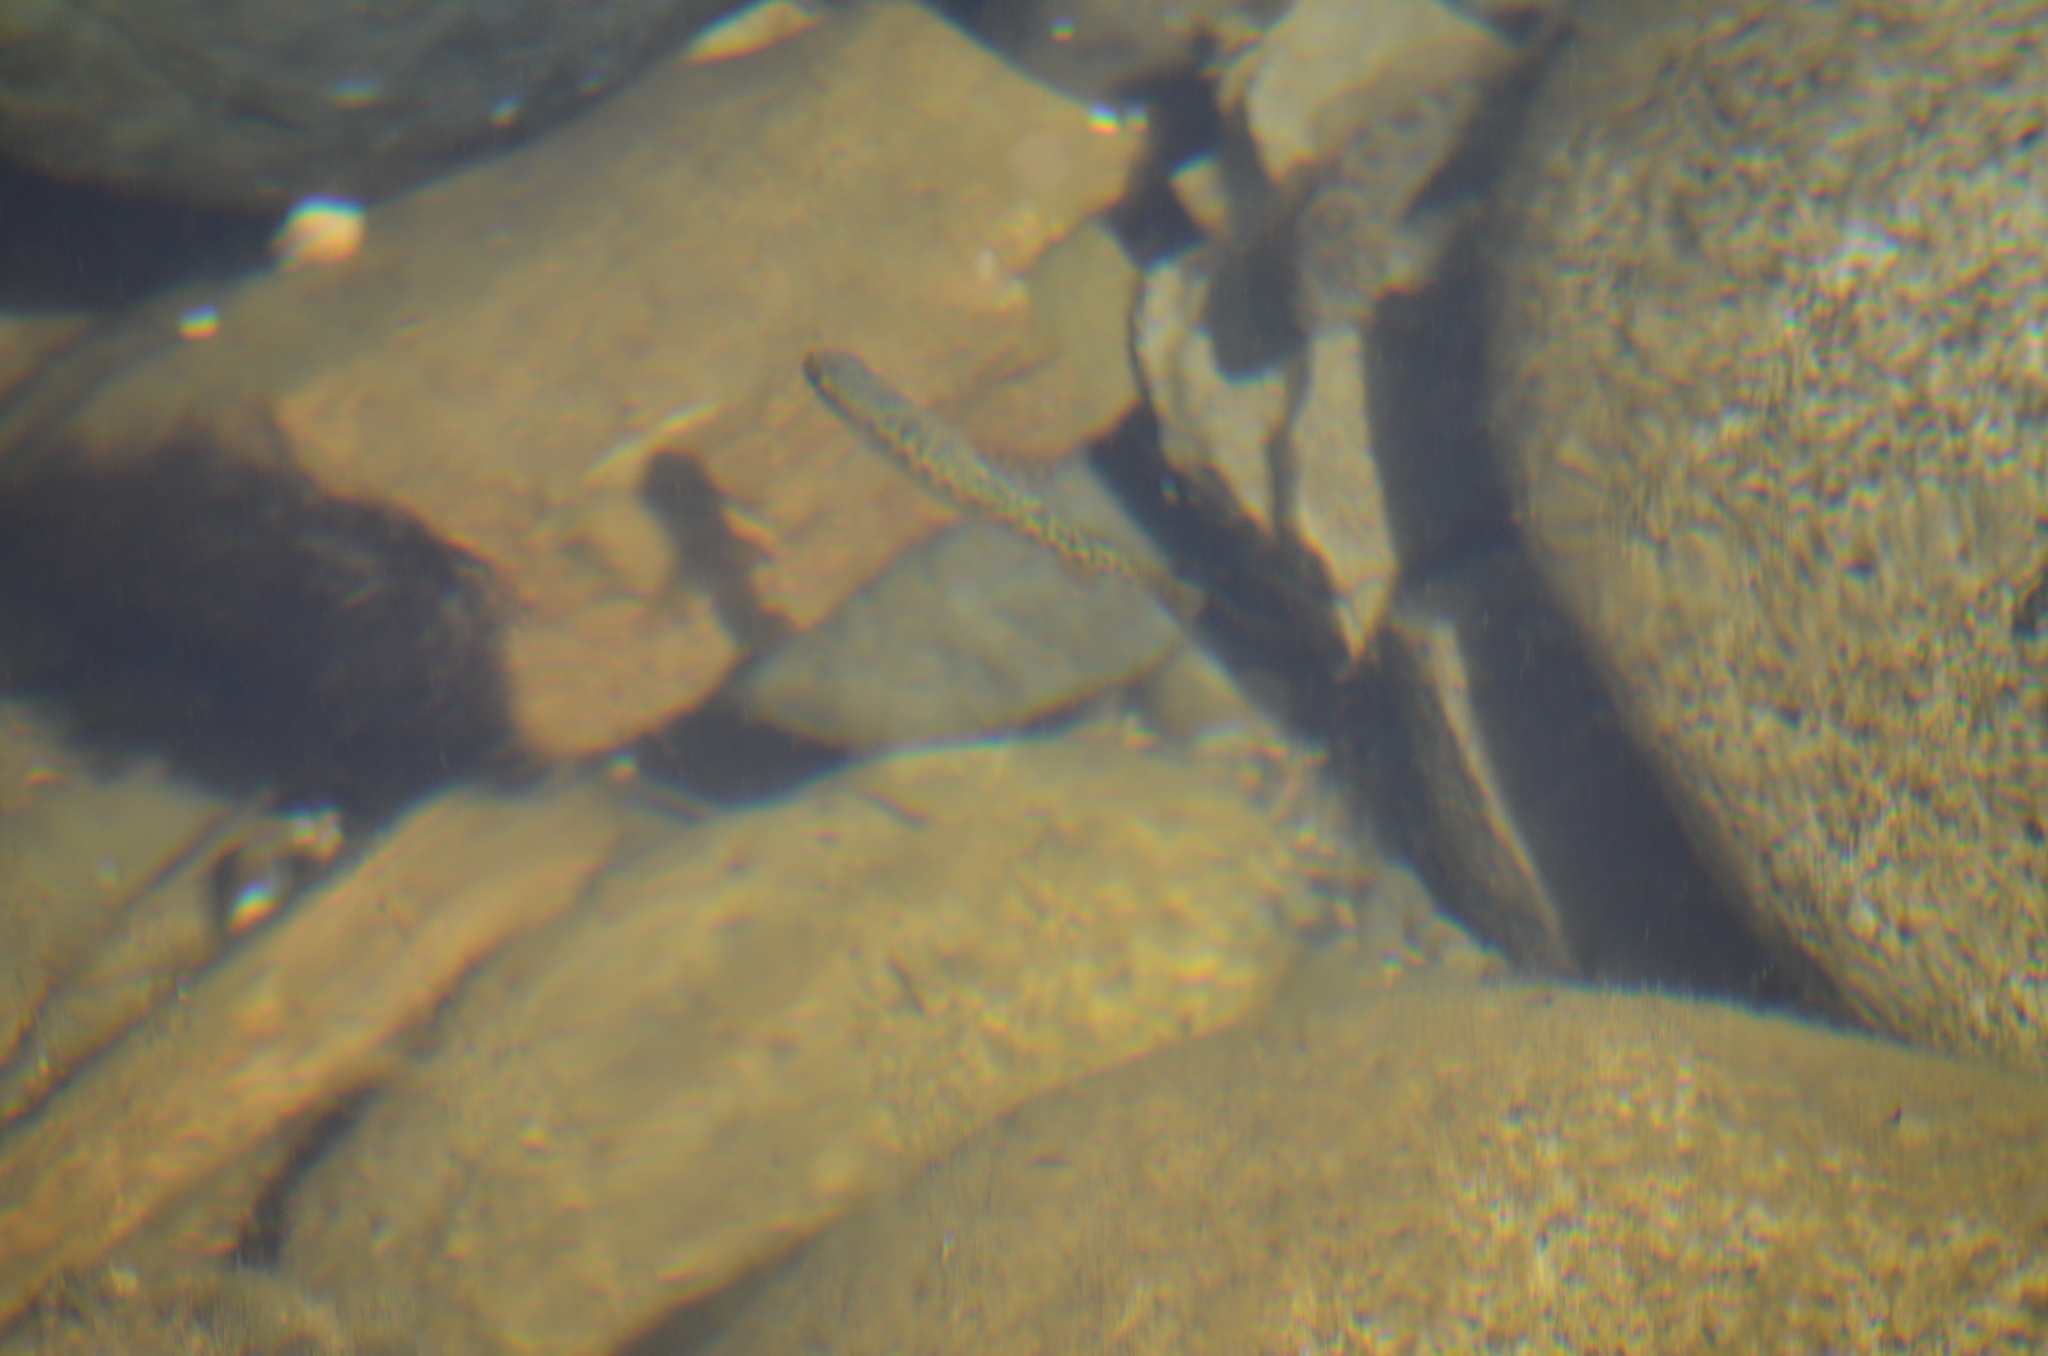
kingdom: Animalia
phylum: Chordata
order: Salmoniformes
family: Salmonidae
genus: Oncorhynchus
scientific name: Oncorhynchus mykiss
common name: Rainbow trout
